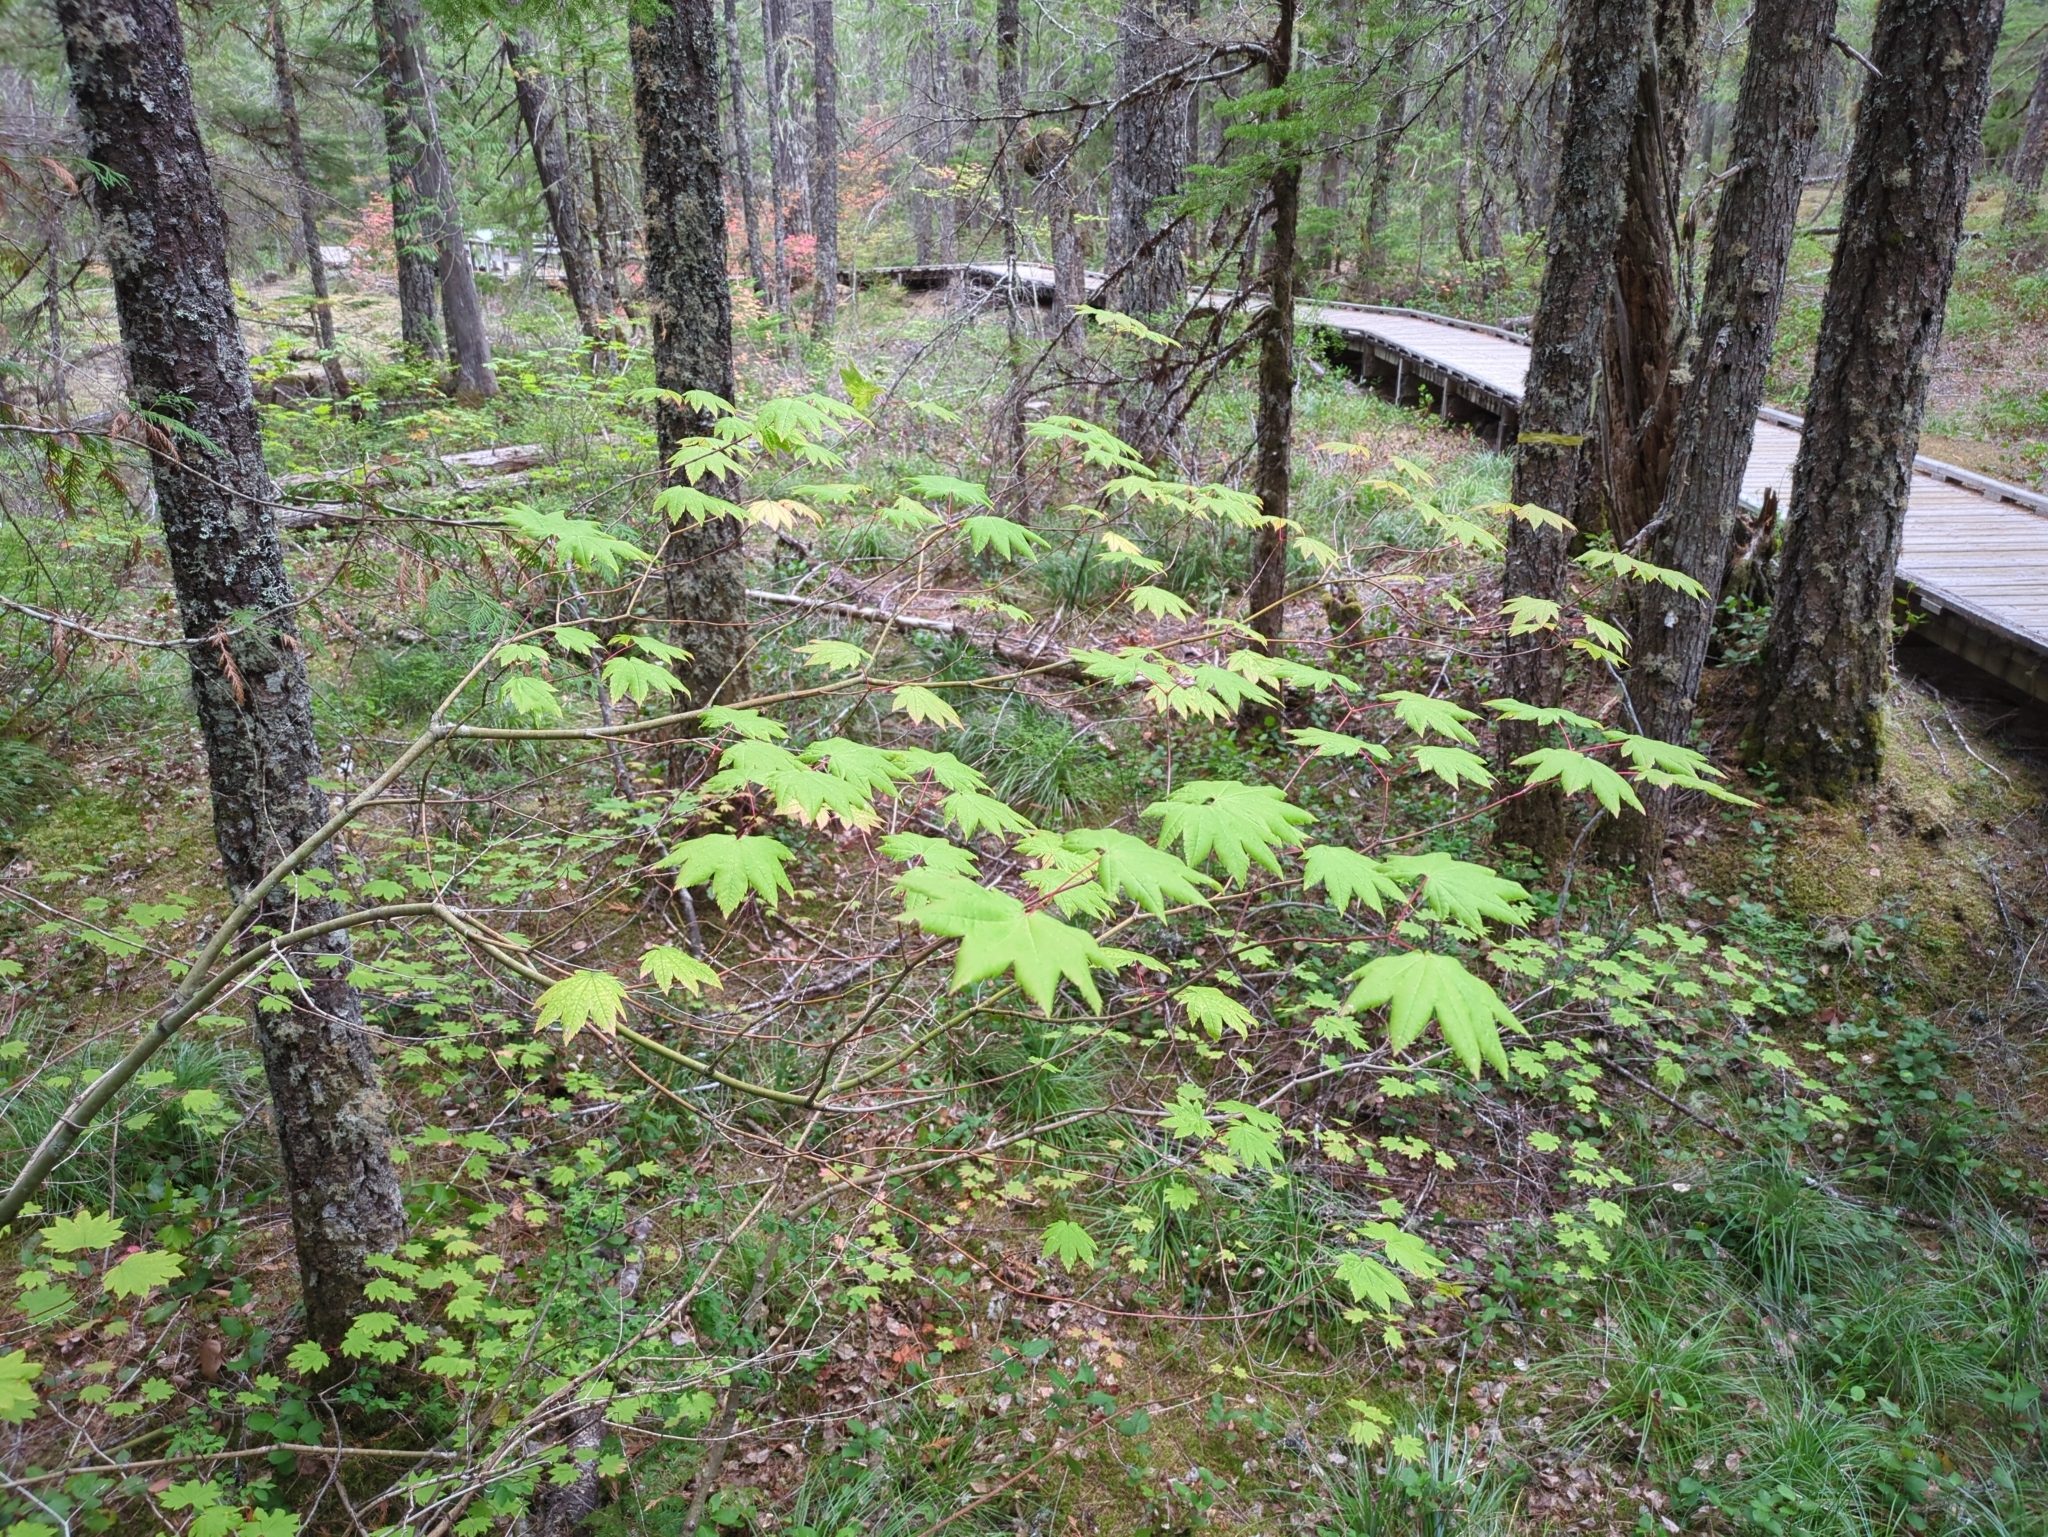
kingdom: Plantae
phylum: Tracheophyta
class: Magnoliopsida
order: Sapindales
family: Sapindaceae
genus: Acer
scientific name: Acer circinatum
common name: Vine maple
